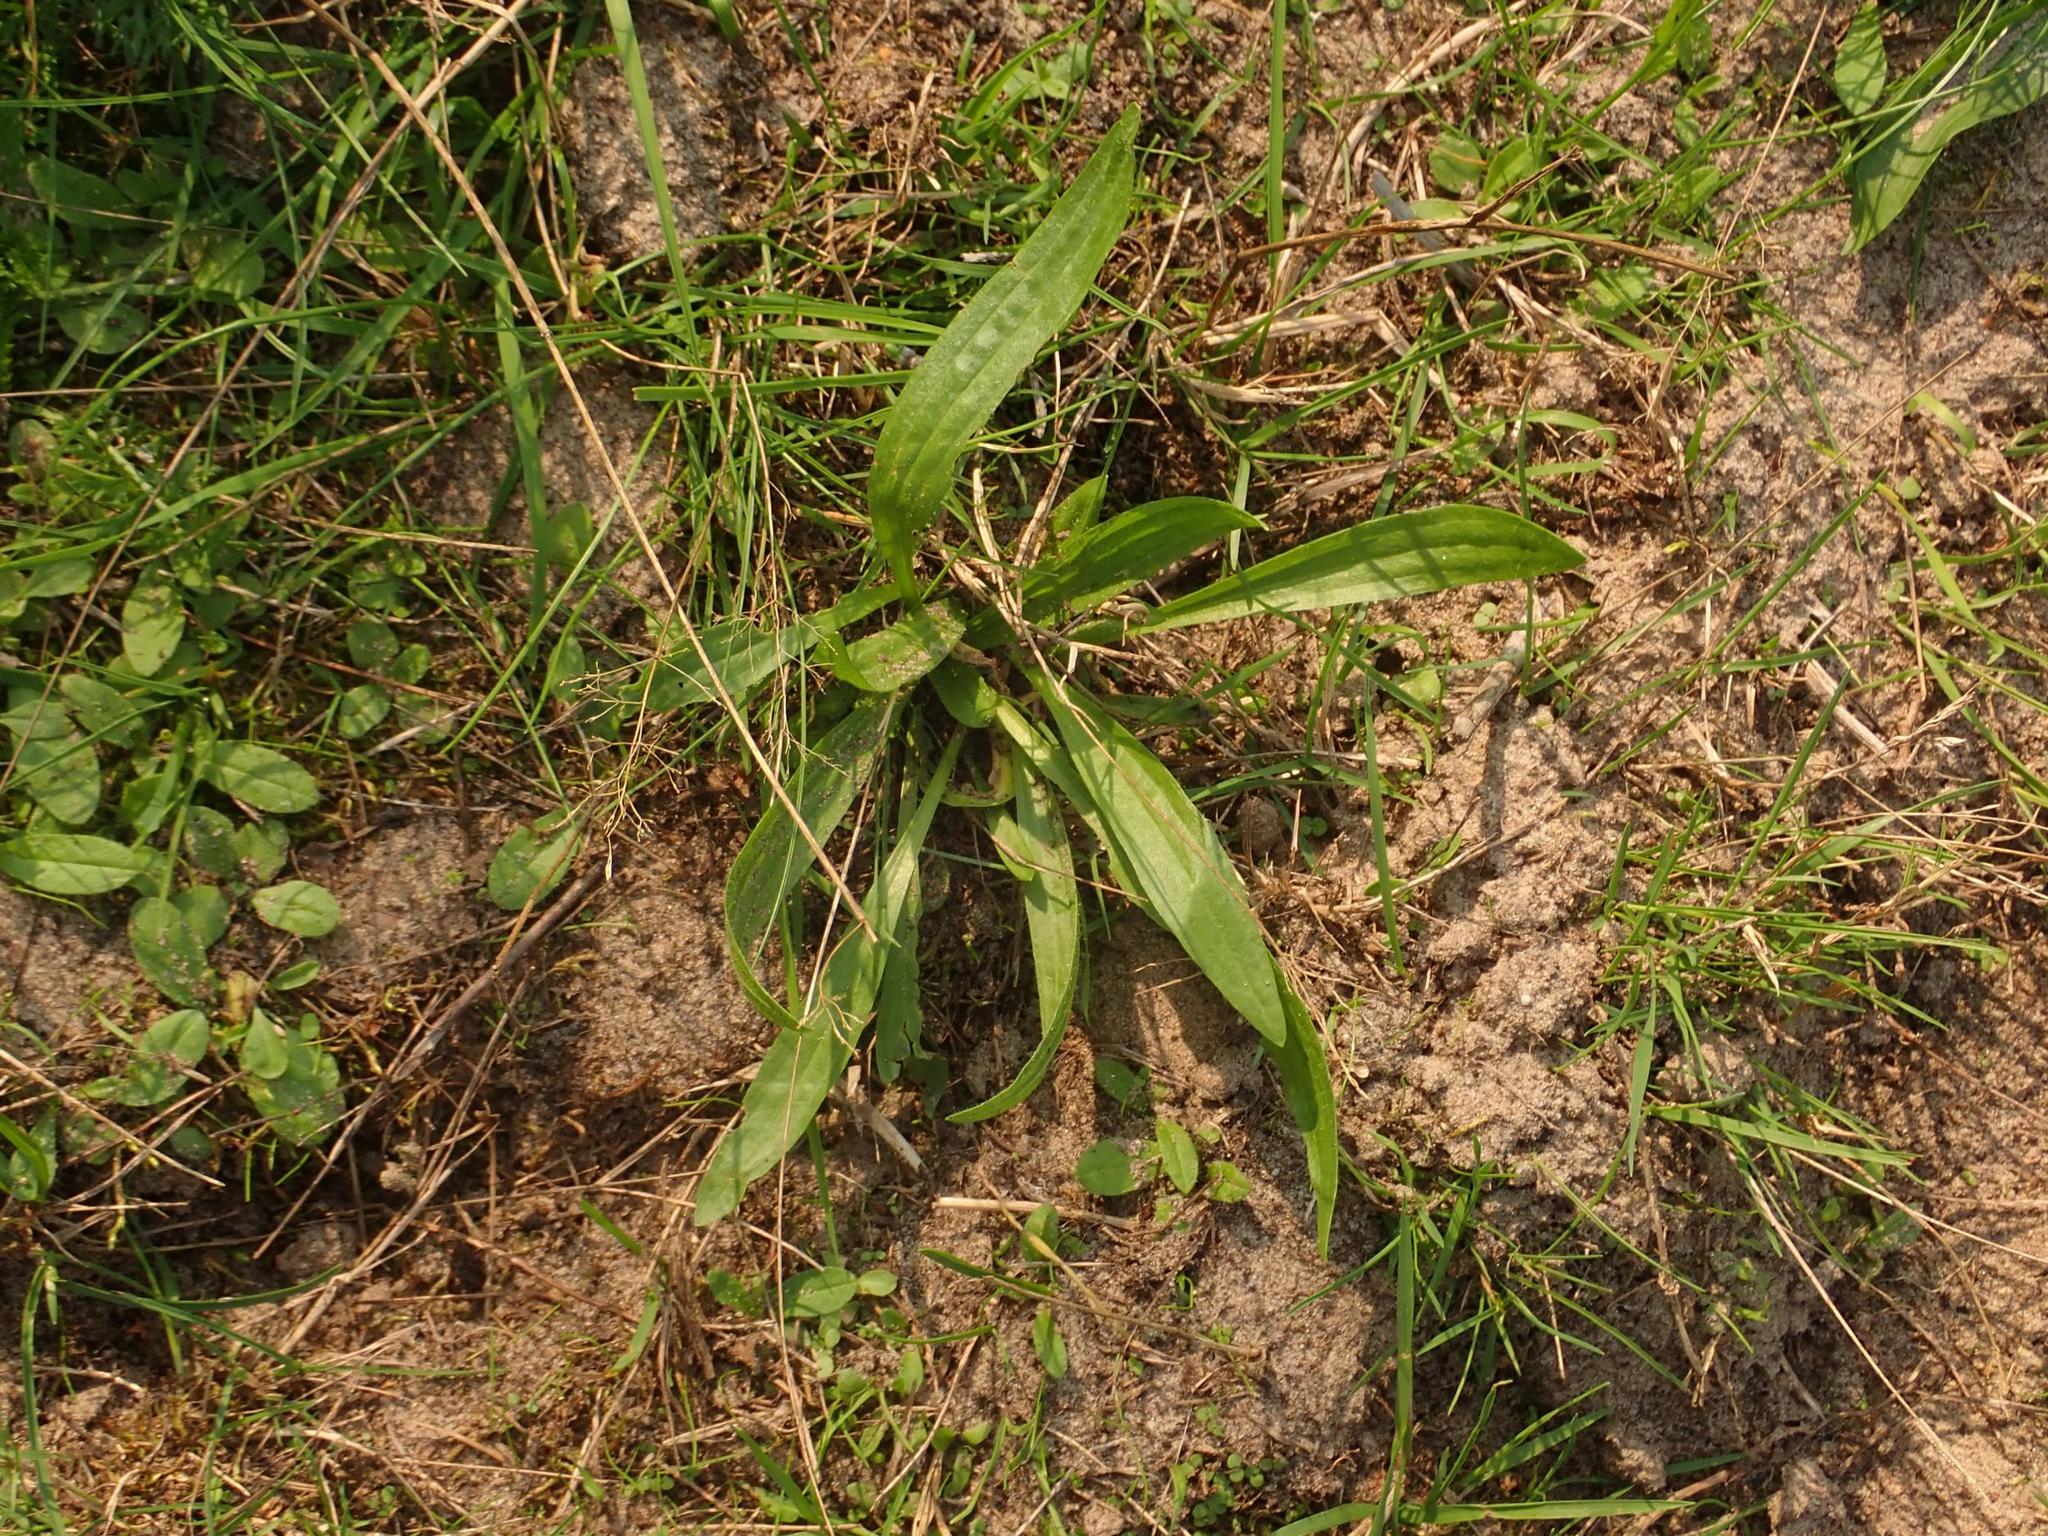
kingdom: Plantae
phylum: Tracheophyta
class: Magnoliopsida
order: Lamiales
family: Plantaginaceae
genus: Plantago
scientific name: Plantago lanceolata
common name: Ribwort plantain
